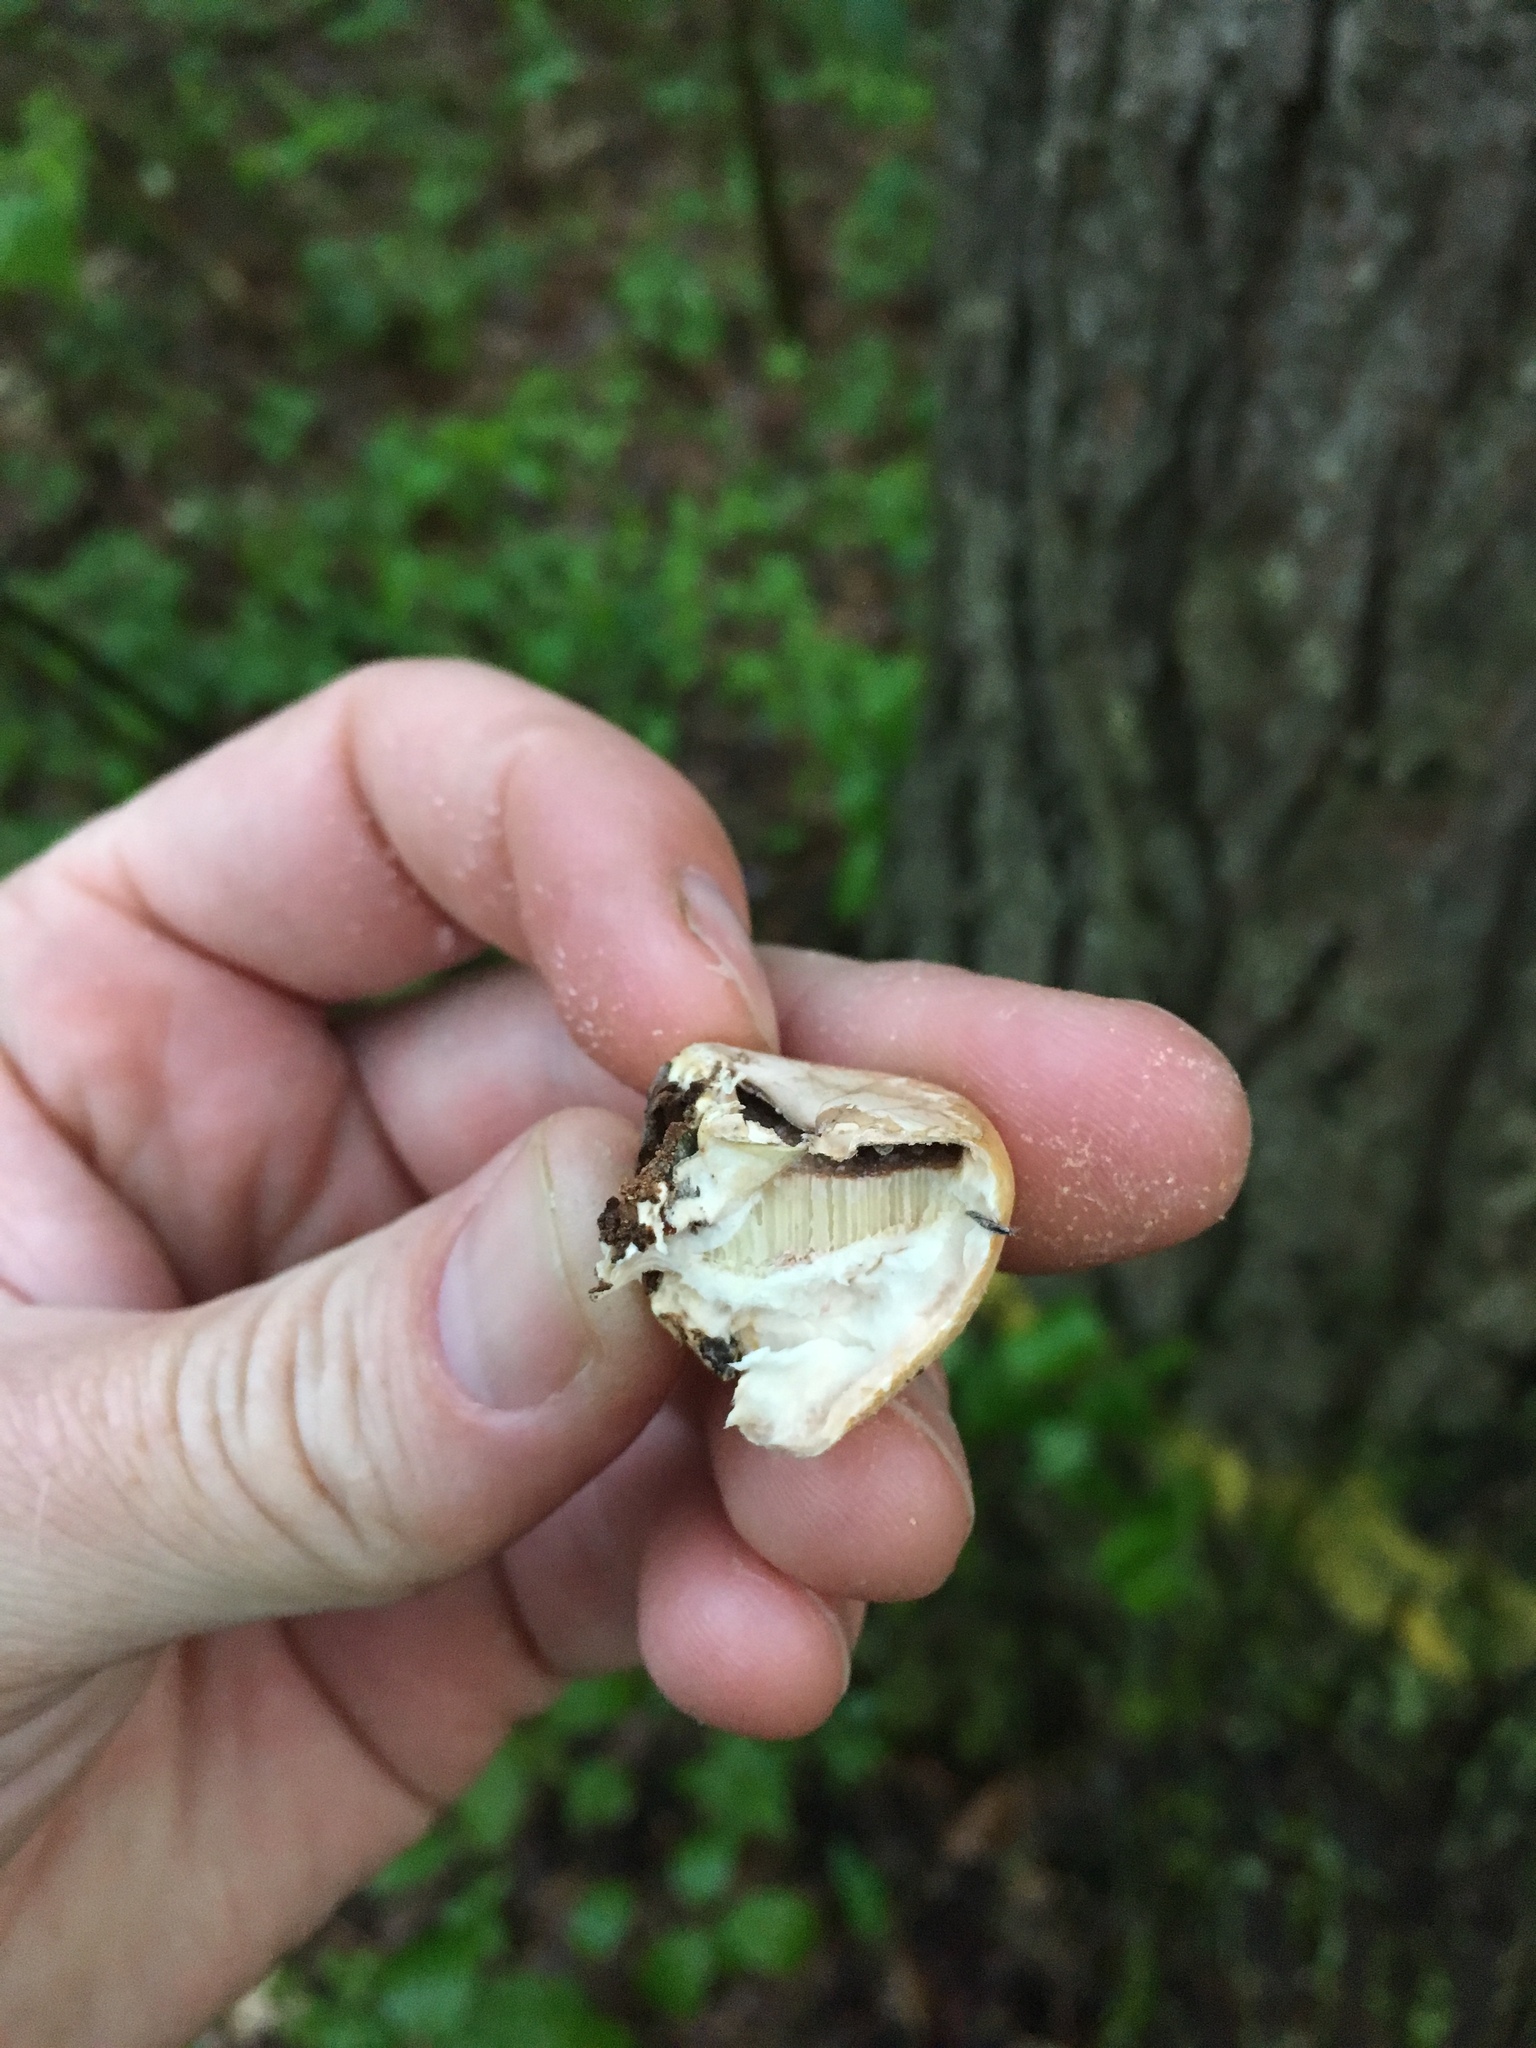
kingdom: Fungi
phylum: Basidiomycota
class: Agaricomycetes
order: Polyporales
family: Polyporaceae
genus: Cryptoporus
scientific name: Cryptoporus volvatus
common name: Veiled polypore
